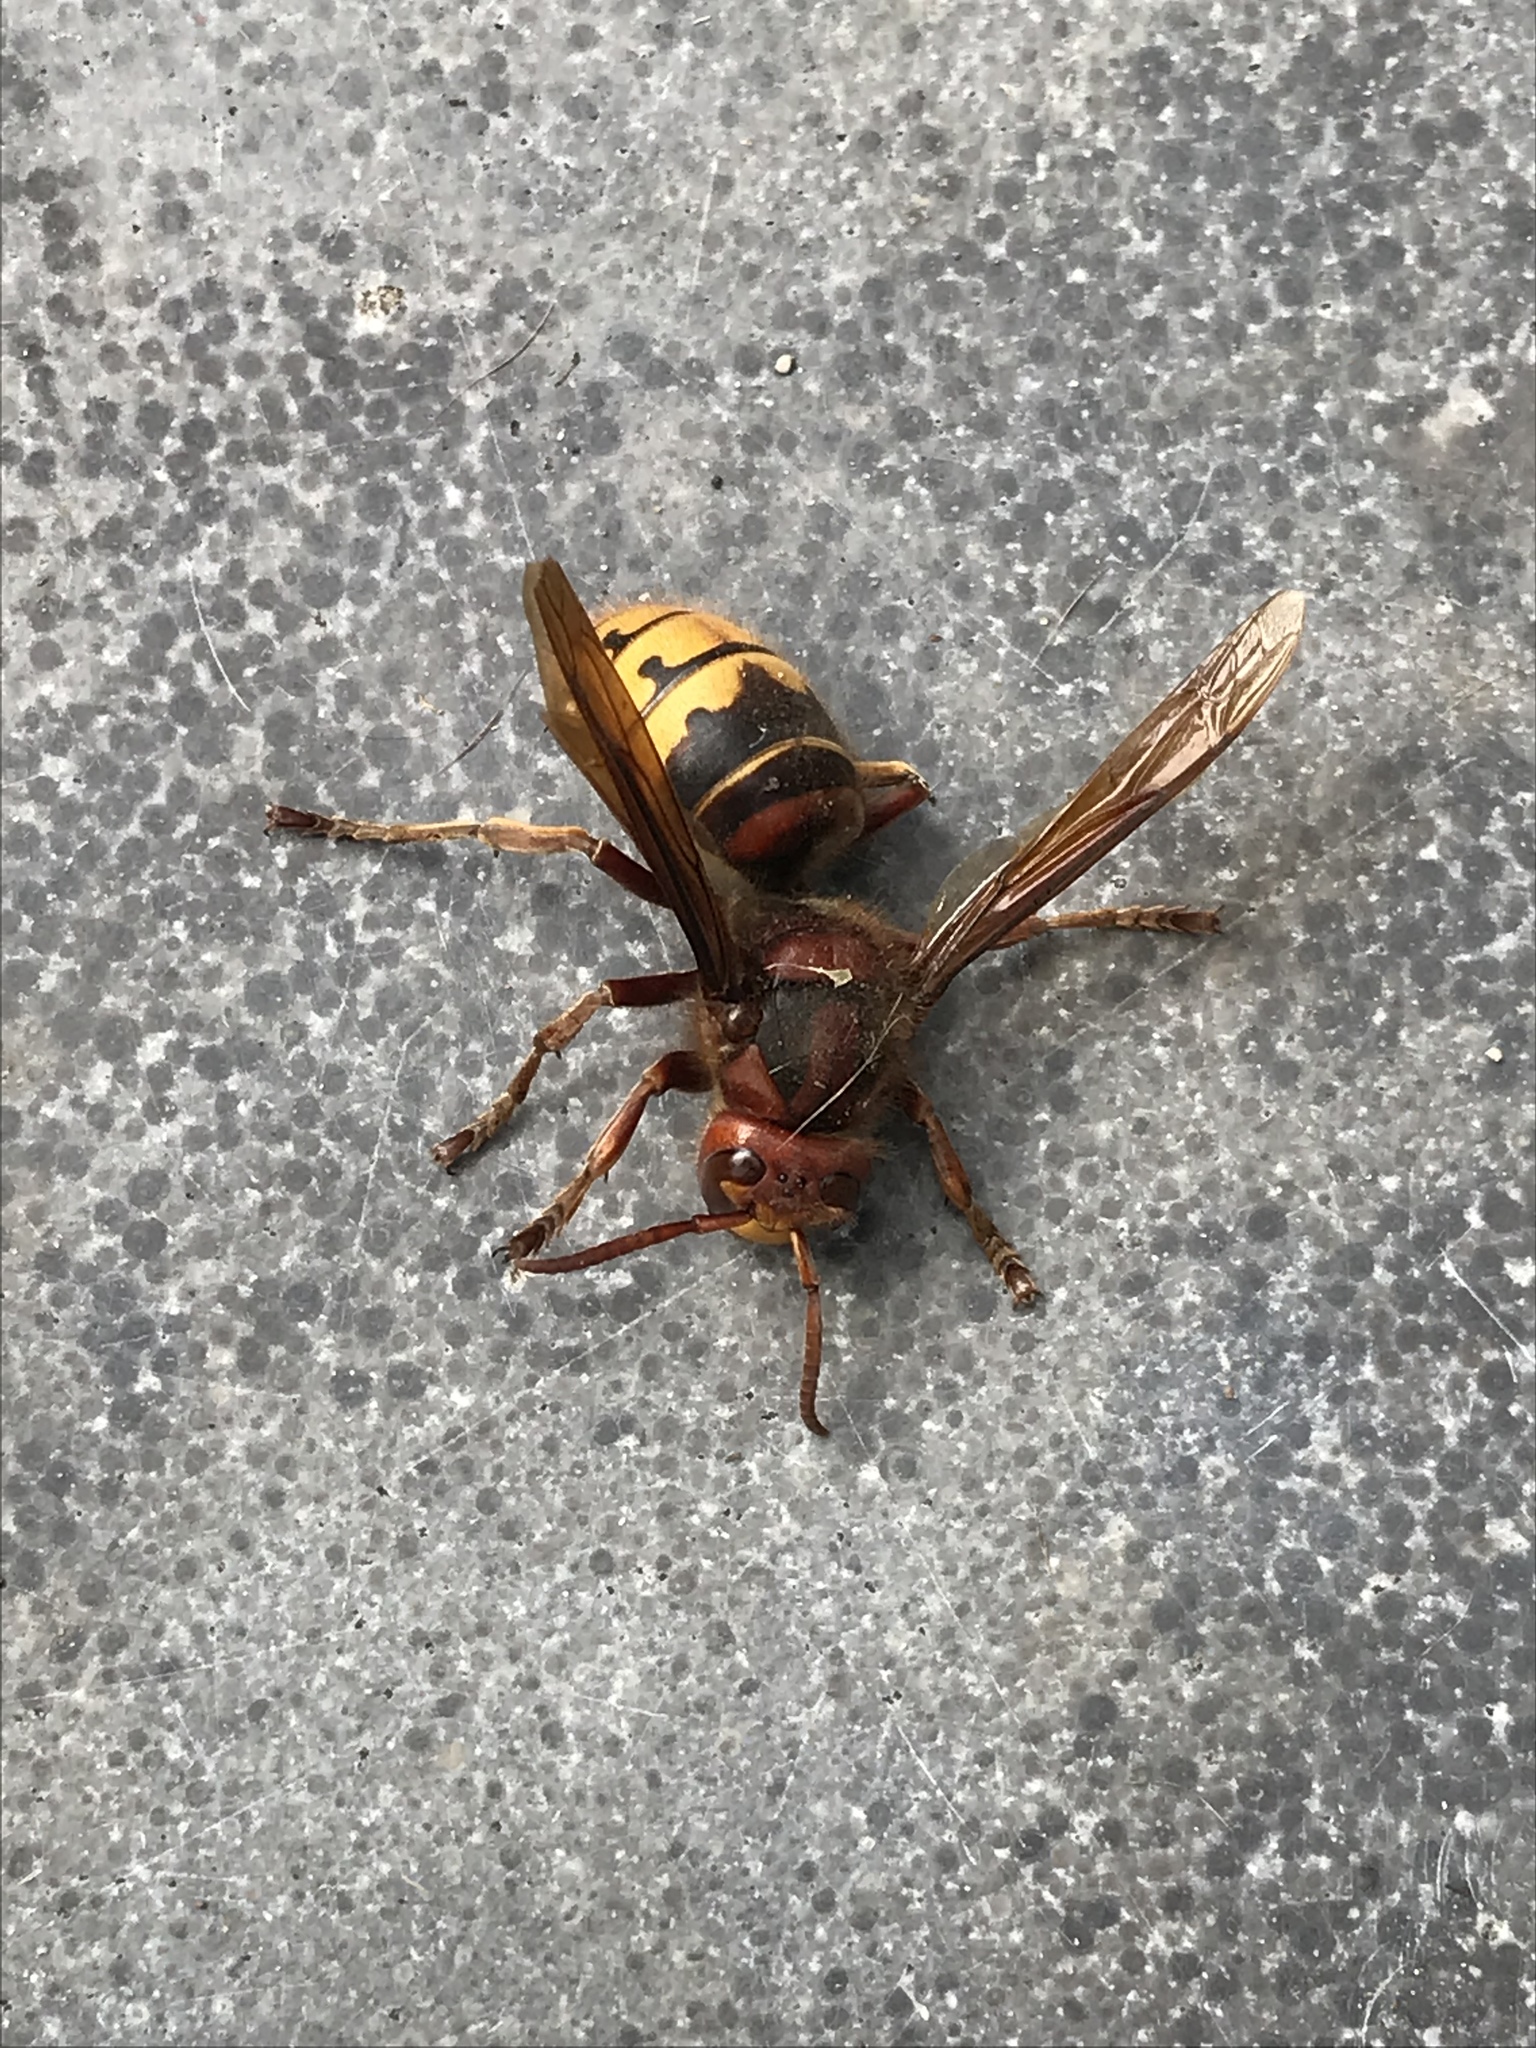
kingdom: Animalia
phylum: Arthropoda
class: Insecta
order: Hymenoptera
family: Vespidae
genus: Vespa
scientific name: Vespa crabro
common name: Hornet
